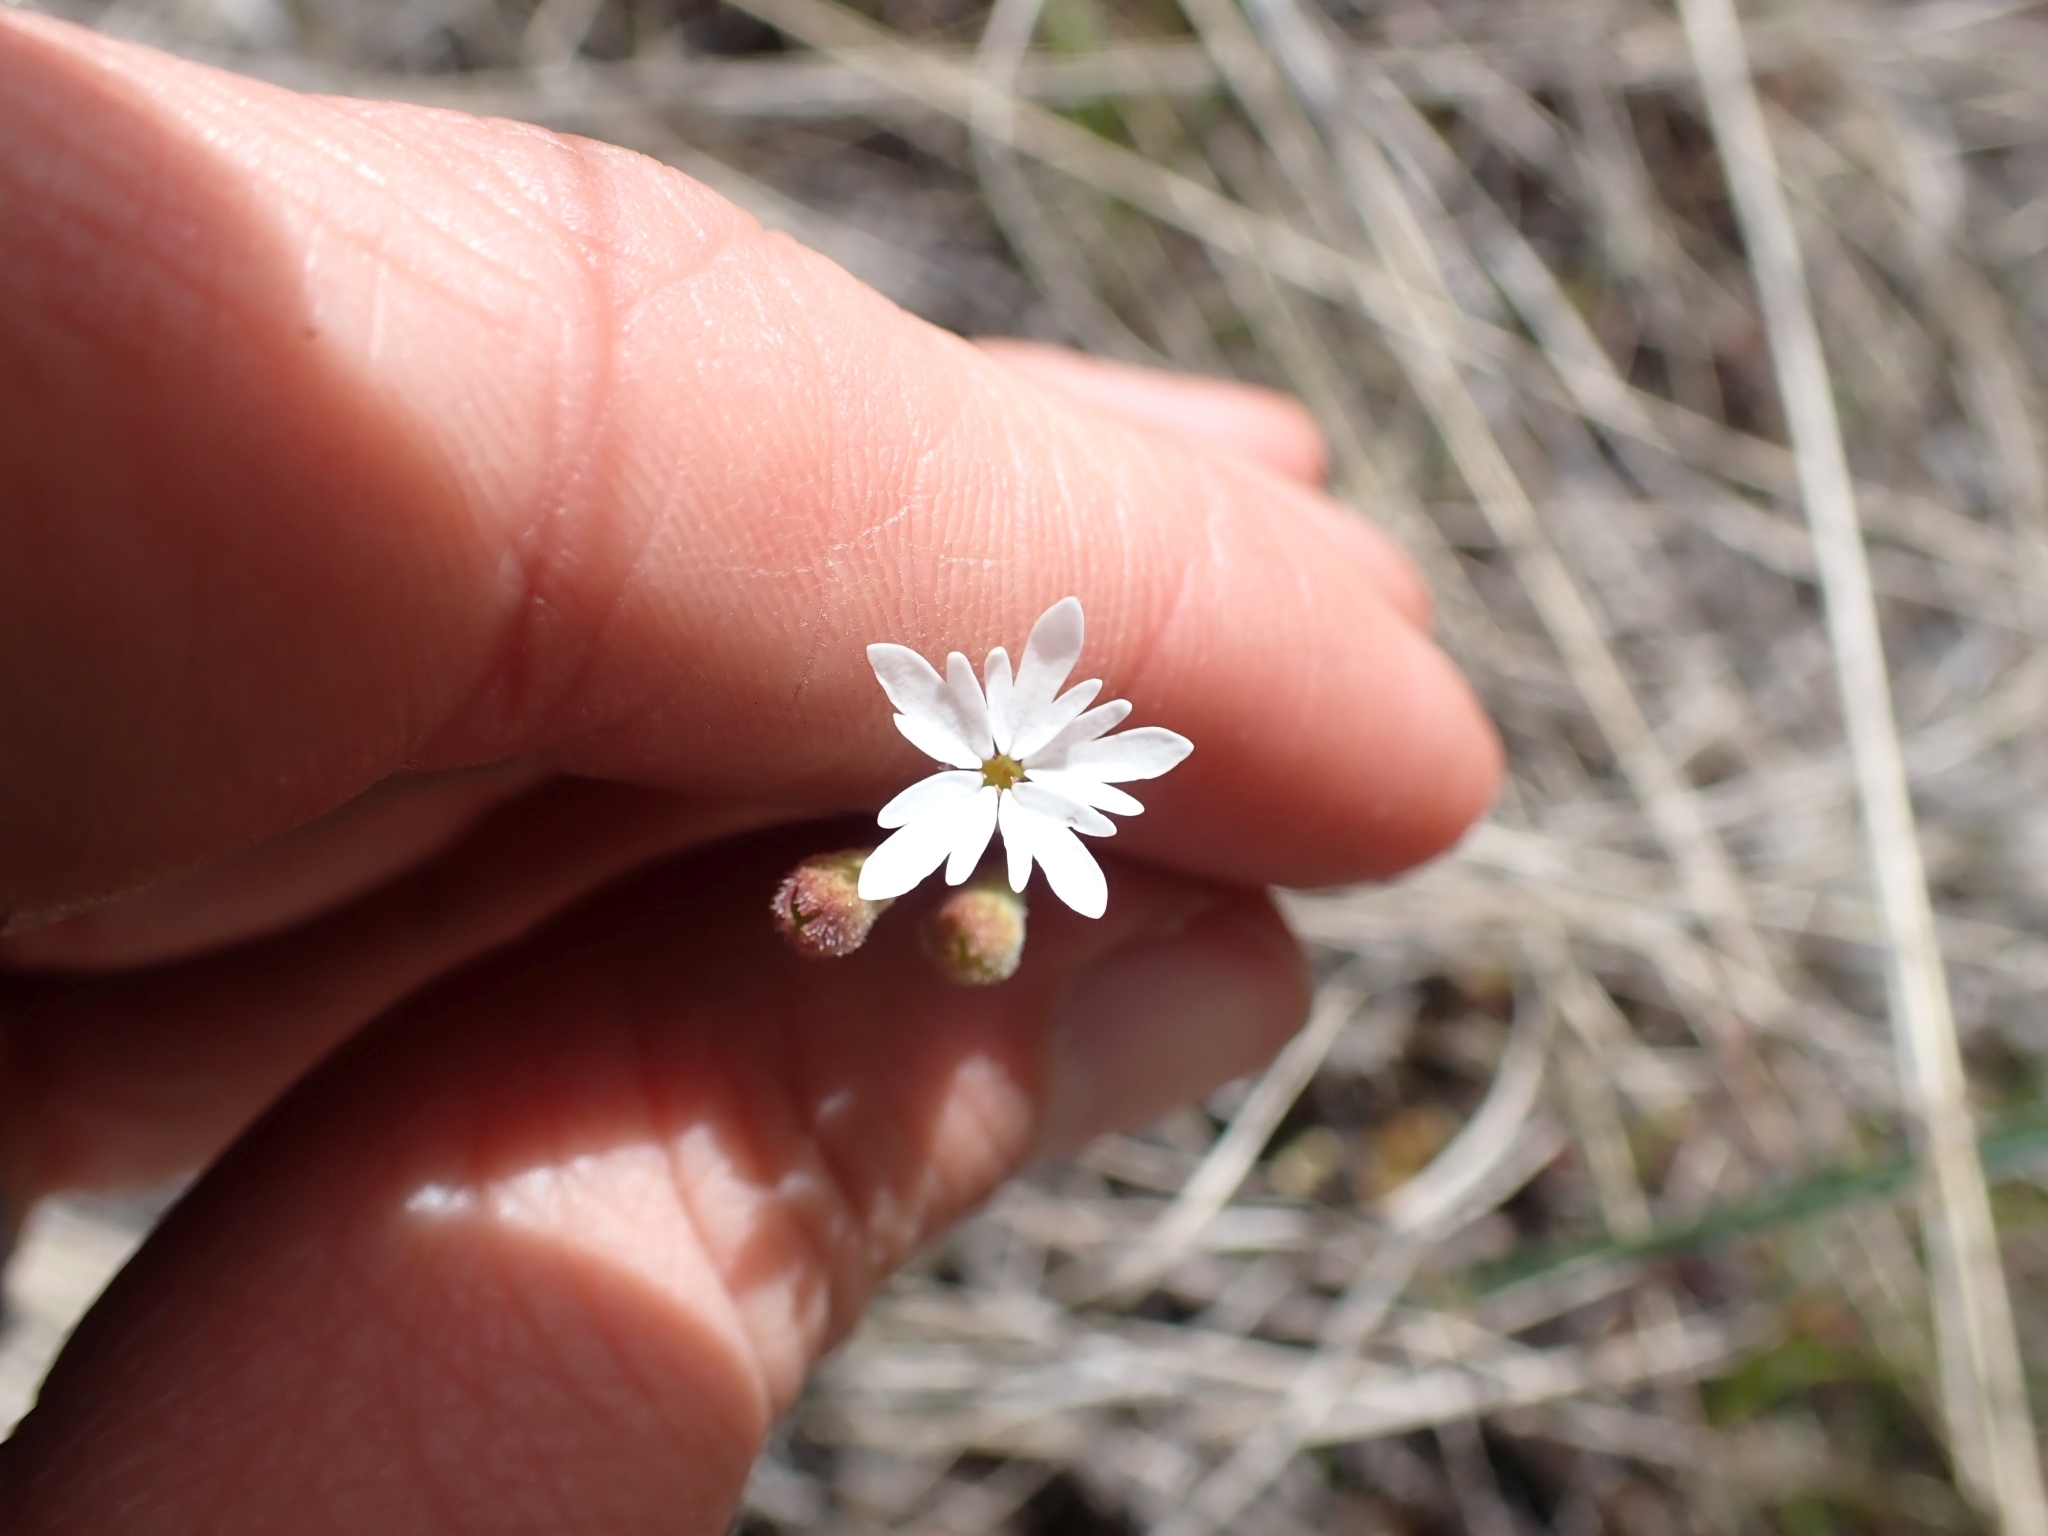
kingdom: Plantae
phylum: Tracheophyta
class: Magnoliopsida
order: Saxifragales
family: Saxifragaceae
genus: Lithophragma
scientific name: Lithophragma parviflorum
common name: Small-flowered fringe-cup
